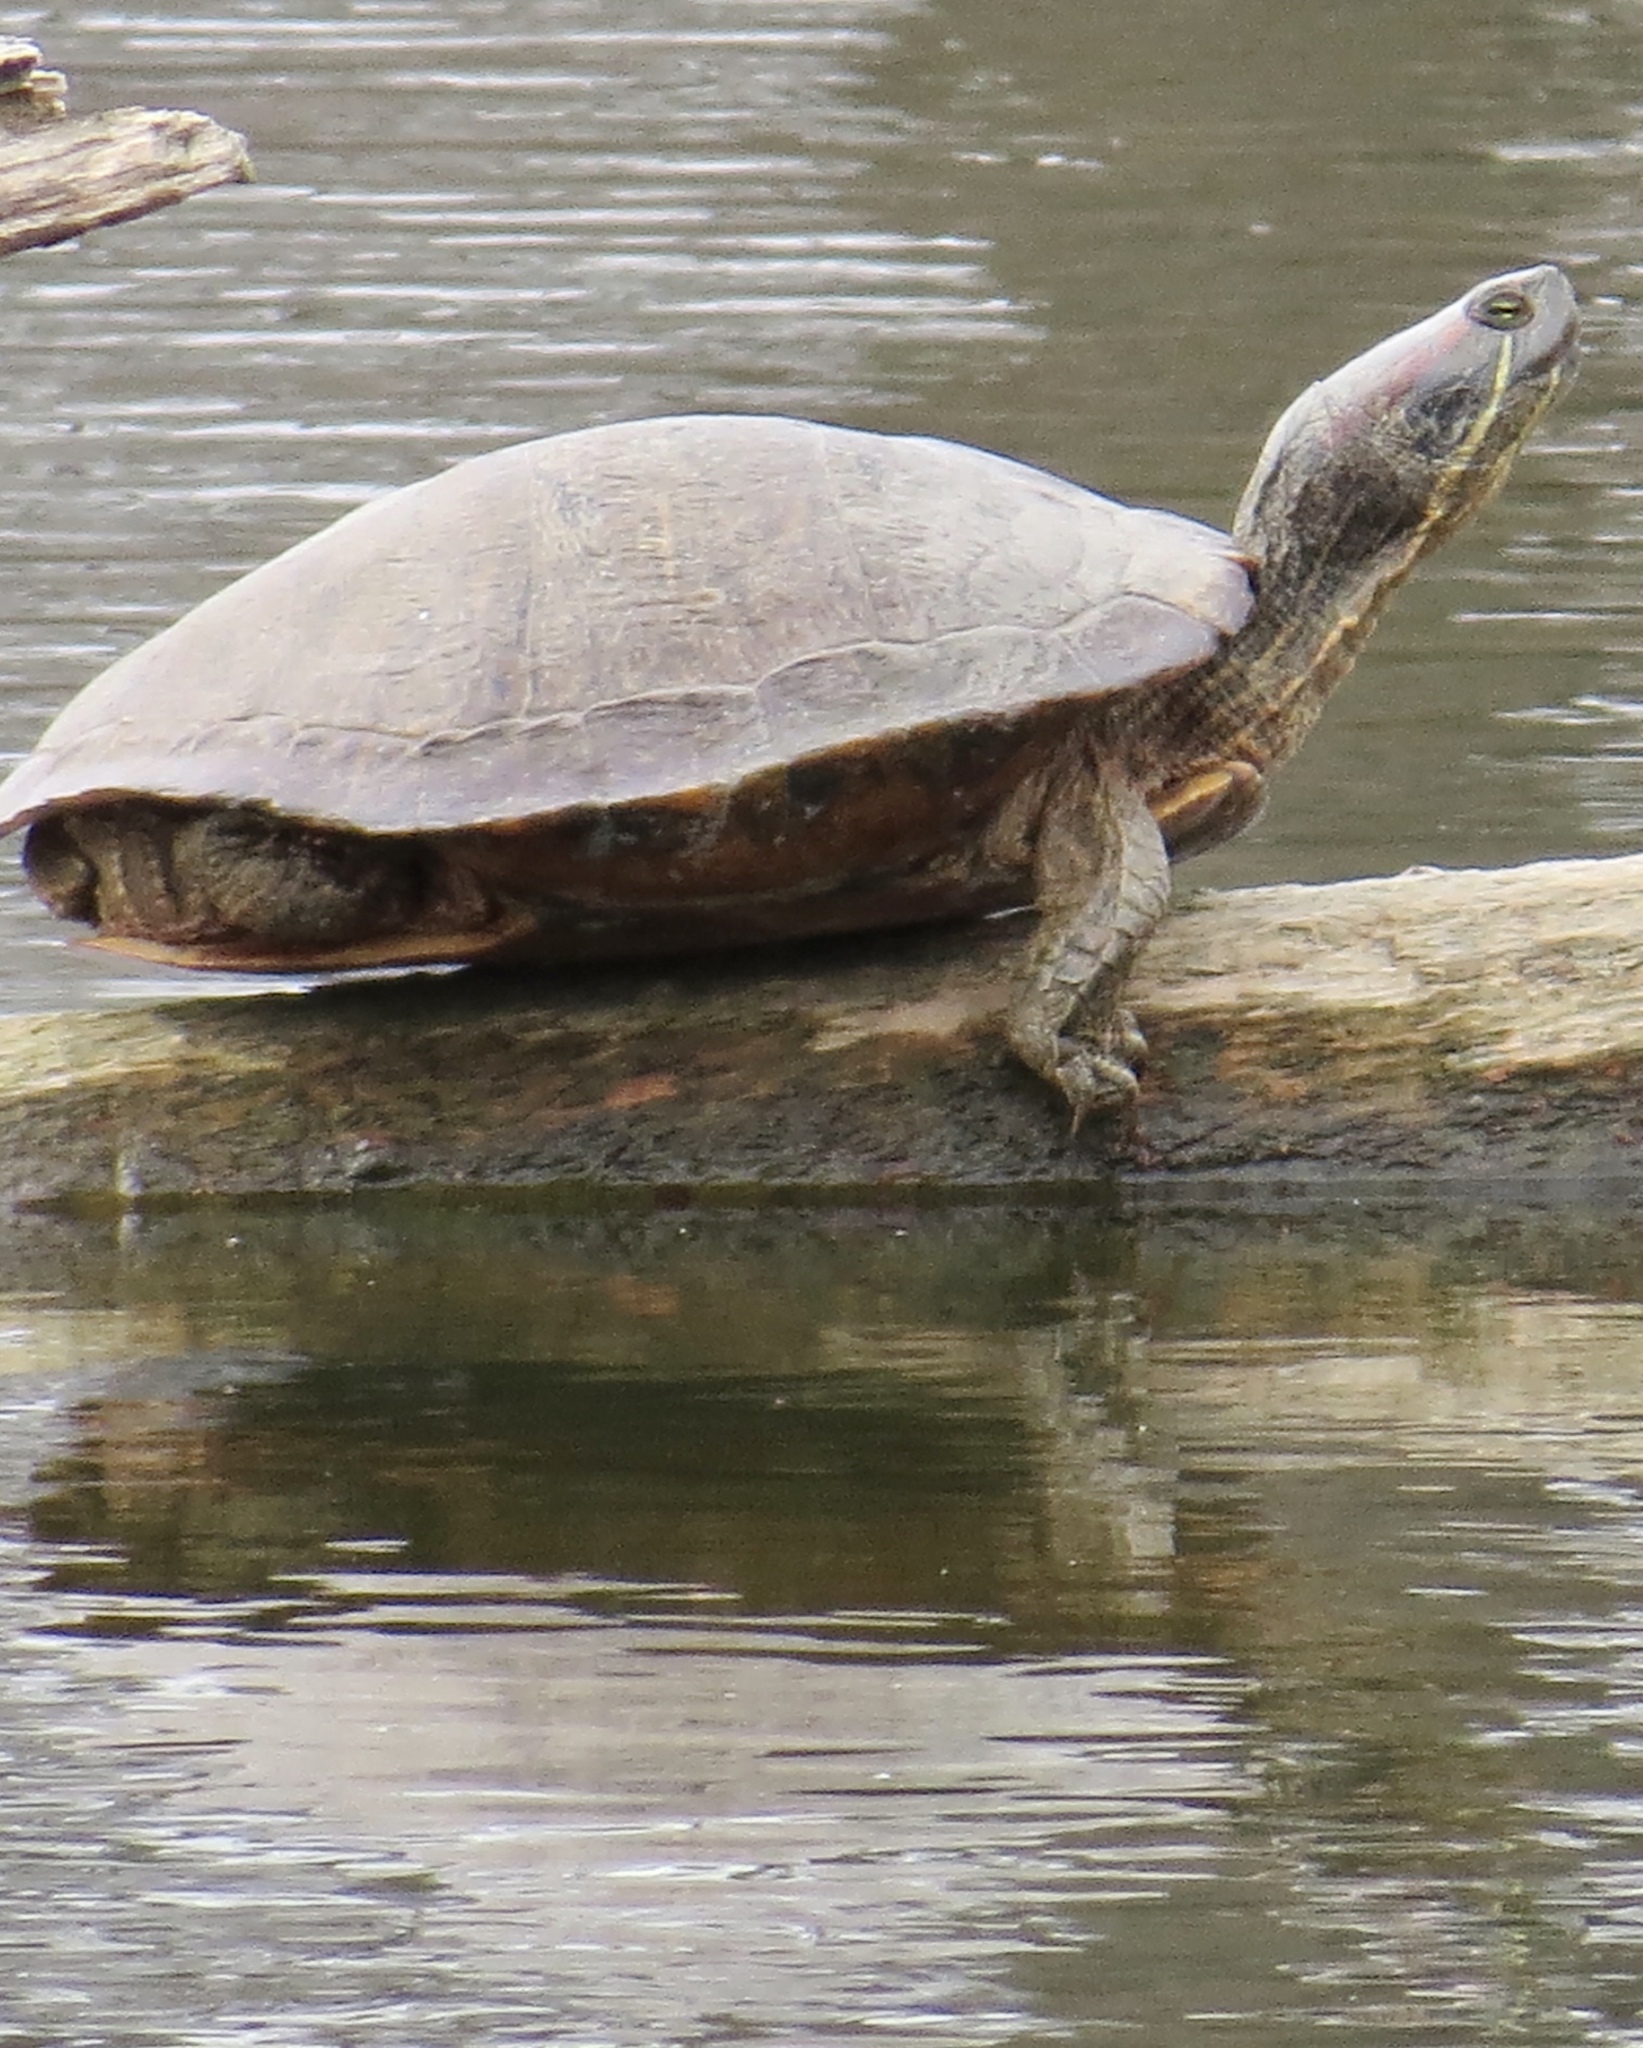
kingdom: Animalia
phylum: Chordata
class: Testudines
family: Emydidae
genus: Trachemys
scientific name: Trachemys scripta
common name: Slider
